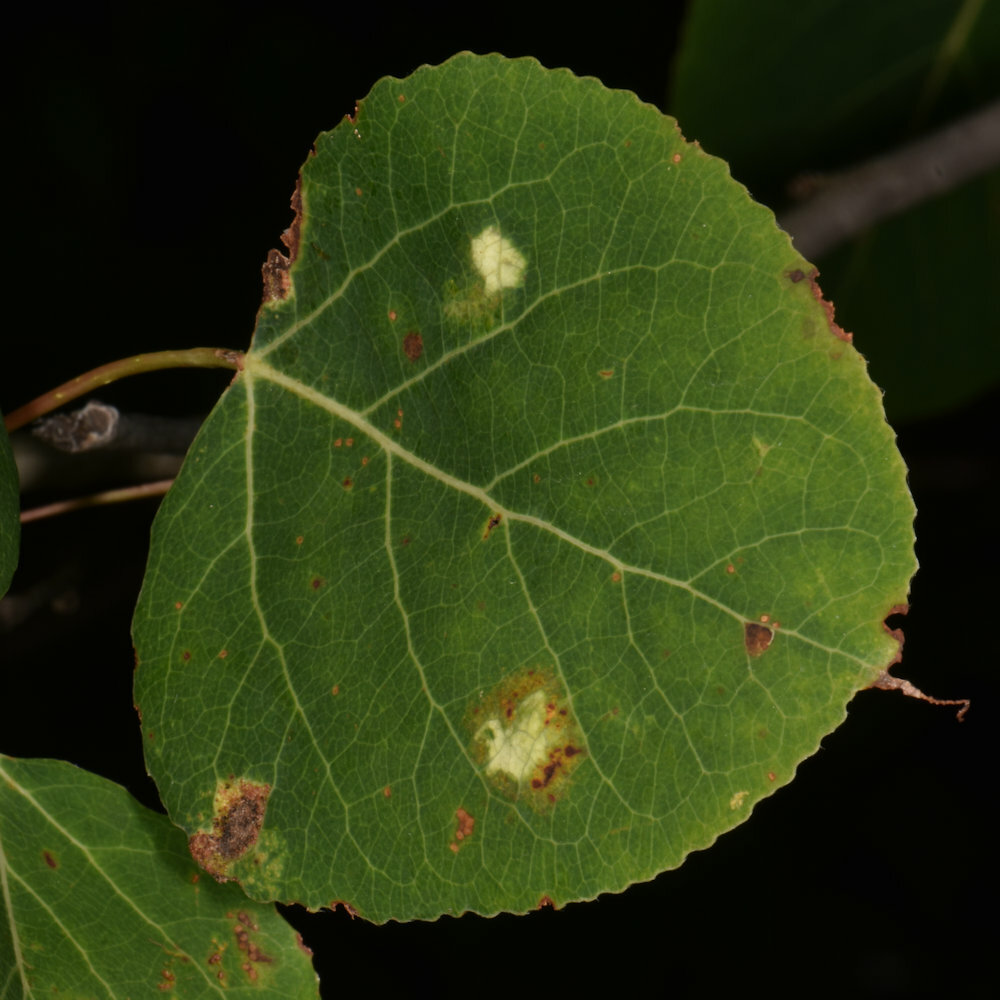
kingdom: Animalia
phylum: Arthropoda
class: Arachnida
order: Trombidiformes
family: Eriophyidae
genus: Phyllocoptes
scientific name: Phyllocoptes
